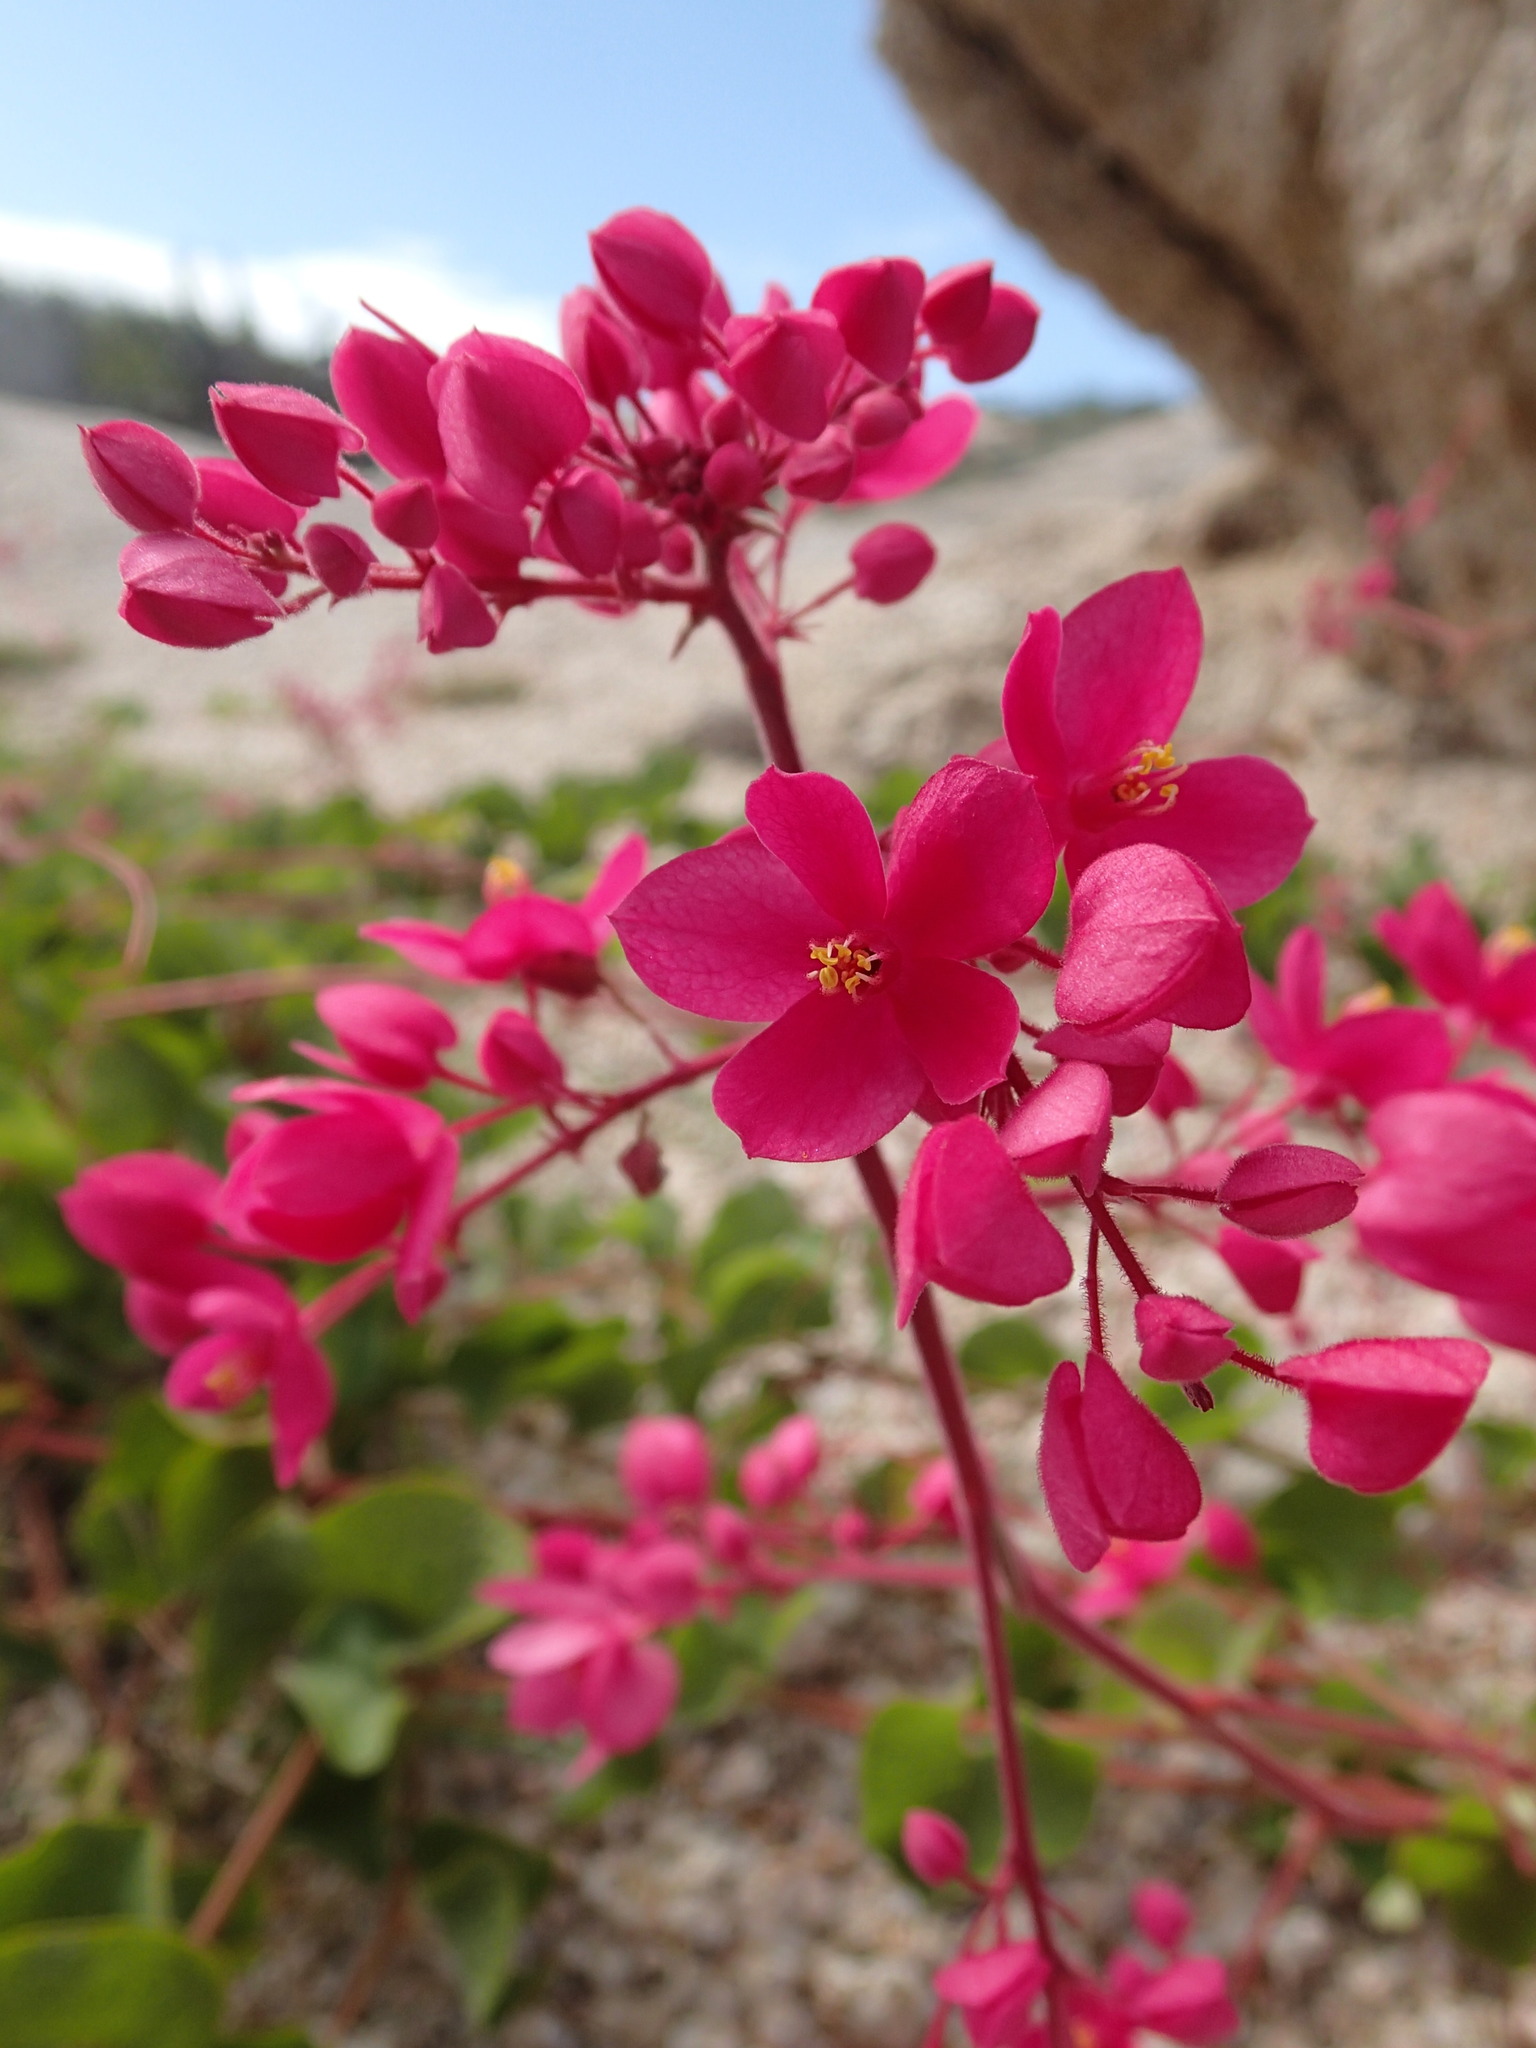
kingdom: Plantae
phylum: Tracheophyta
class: Magnoliopsida
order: Caryophyllales
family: Polygonaceae
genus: Antigonon
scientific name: Antigonon leptopus
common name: Coral vine
